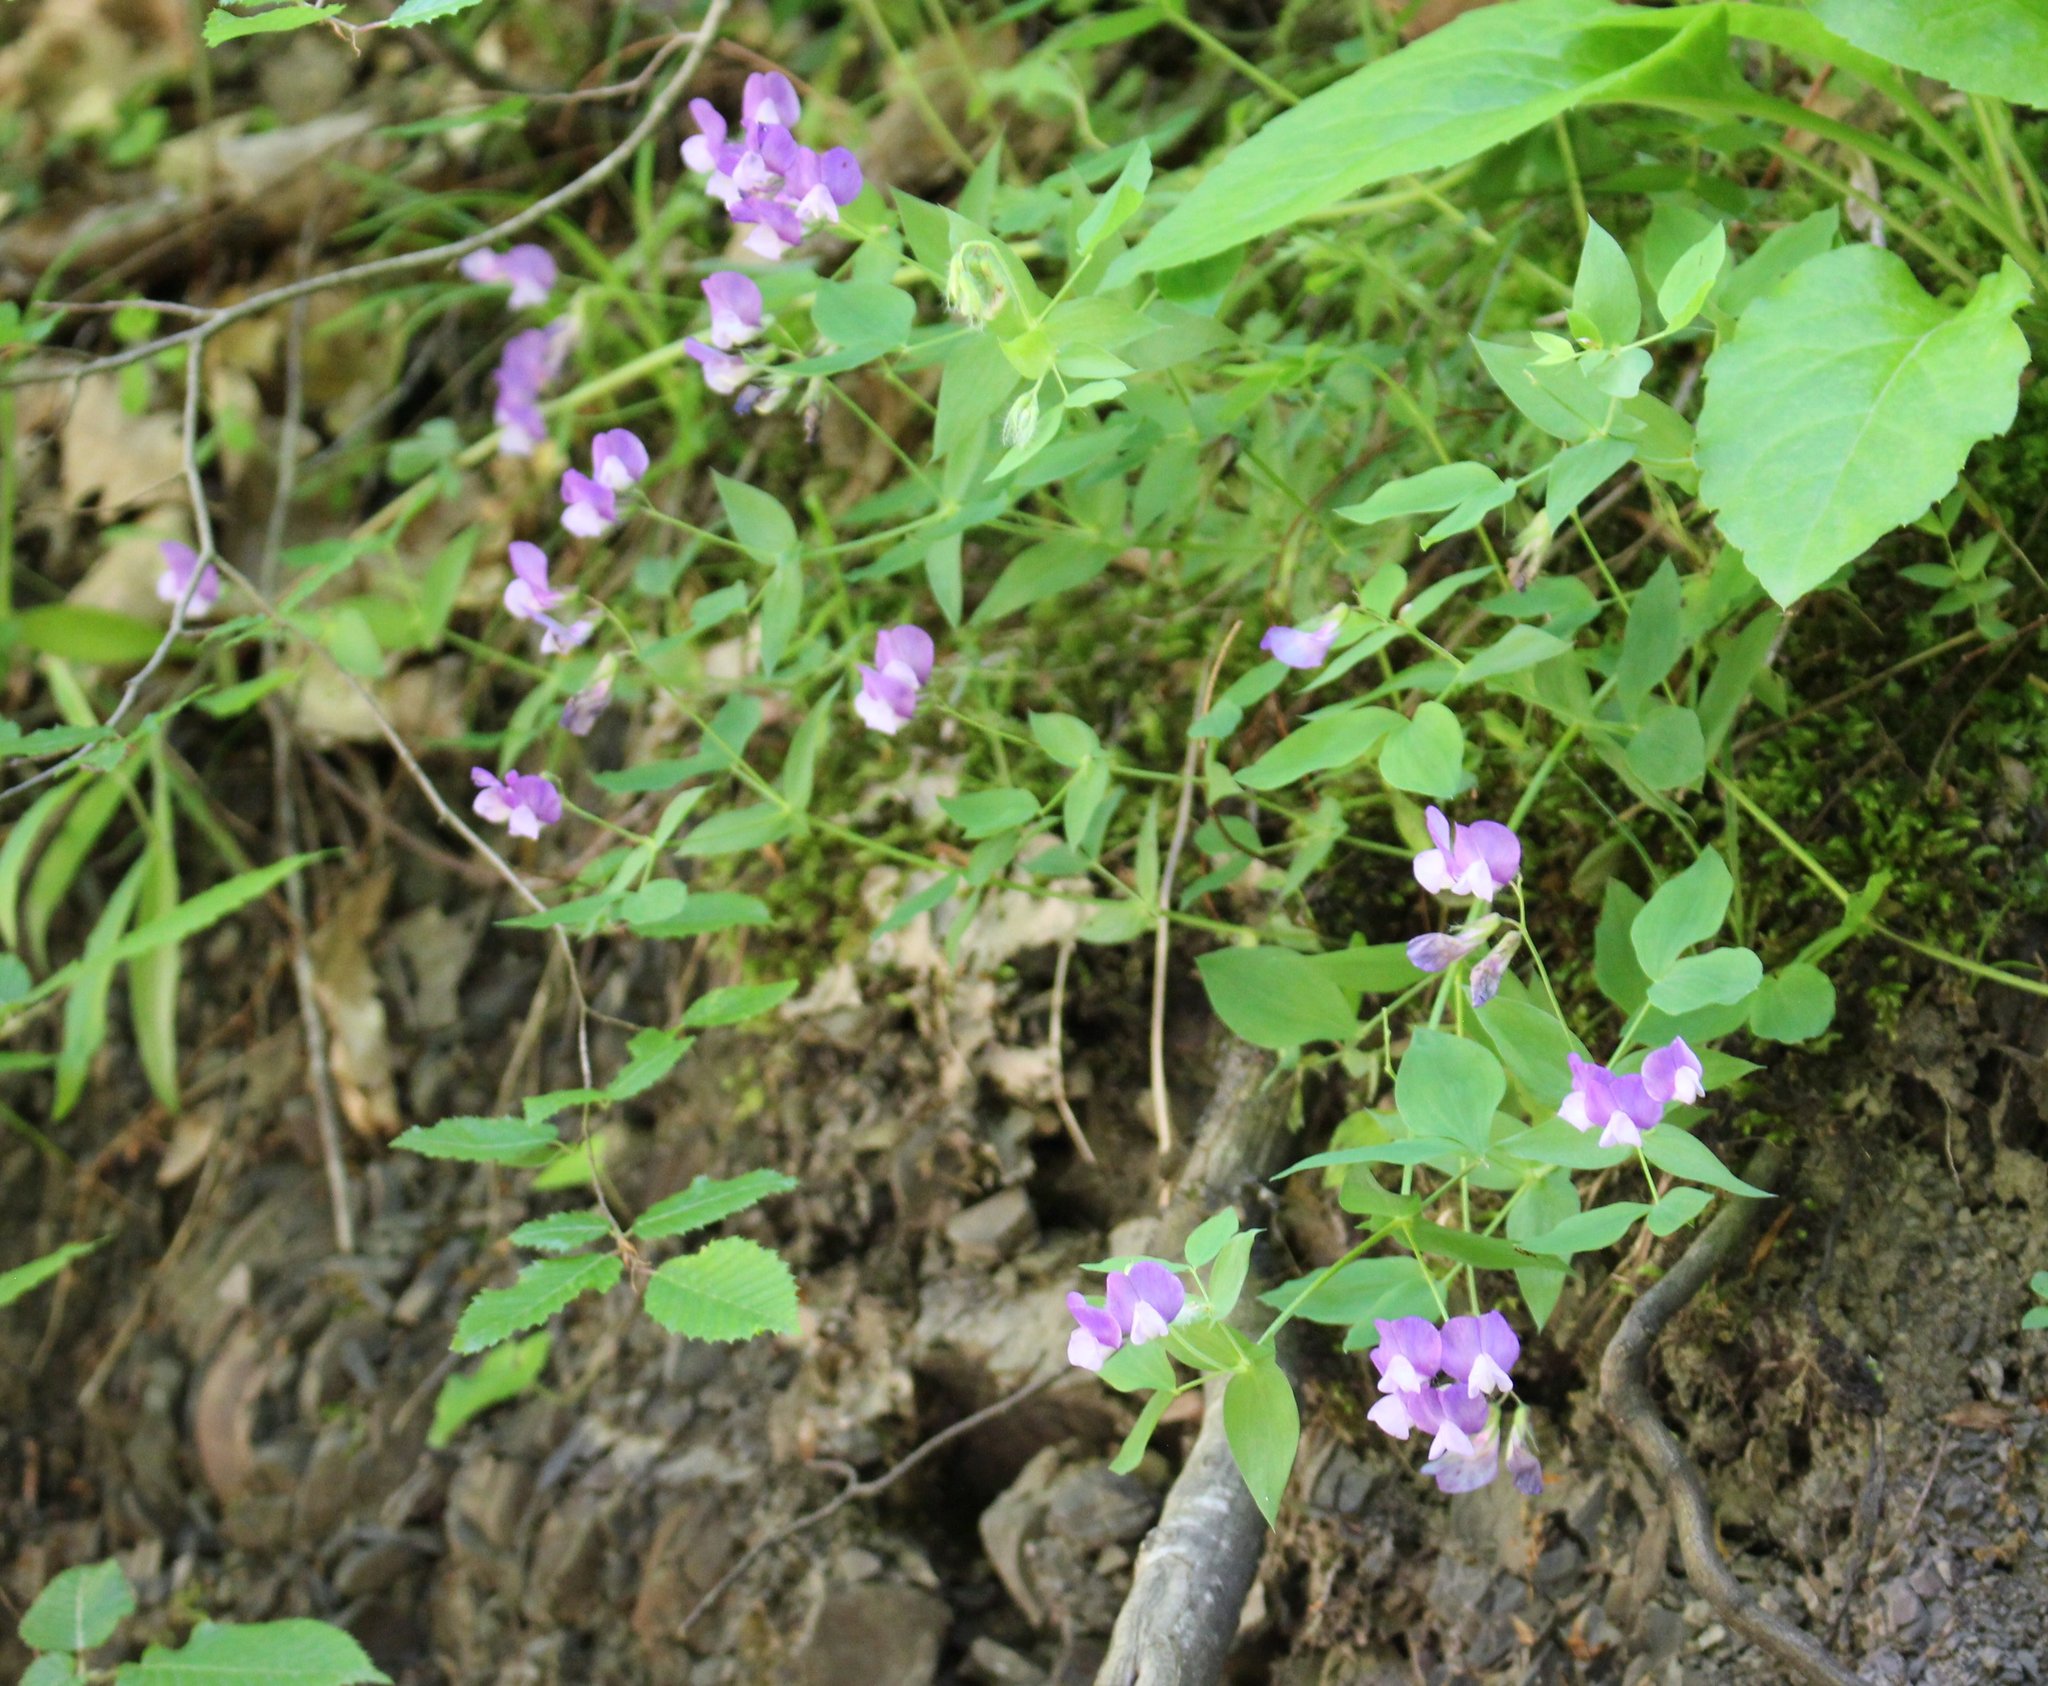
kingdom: Plantae
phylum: Tracheophyta
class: Magnoliopsida
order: Fabales
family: Fabaceae
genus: Lathyrus
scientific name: Lathyrus laxiflorus
